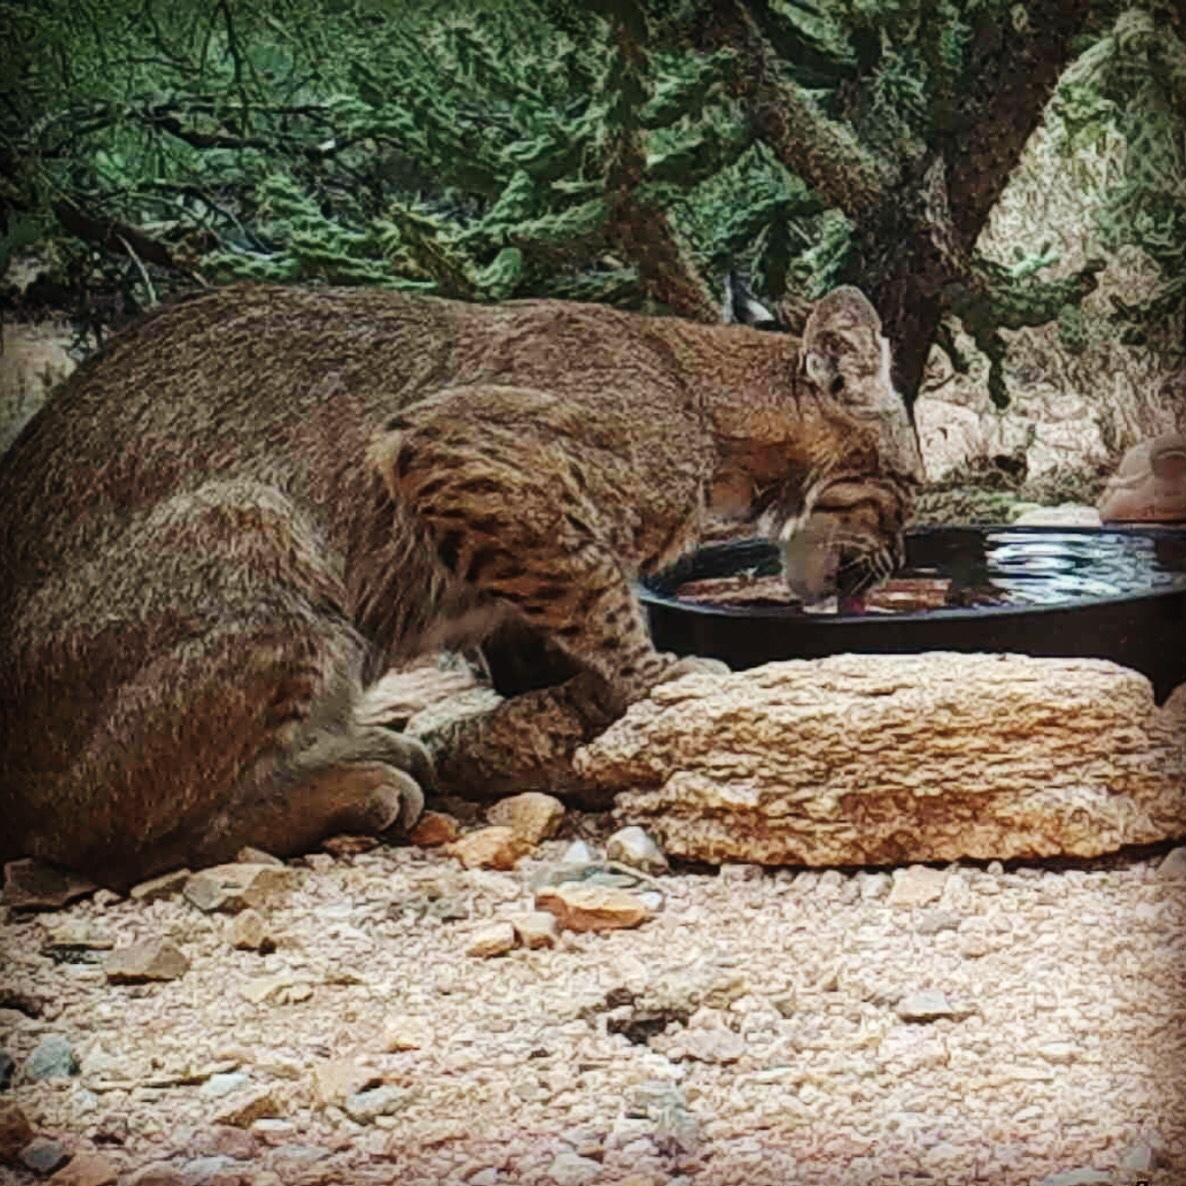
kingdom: Animalia
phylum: Chordata
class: Mammalia
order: Carnivora
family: Felidae
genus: Lynx
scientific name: Lynx rufus
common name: Bobcat
